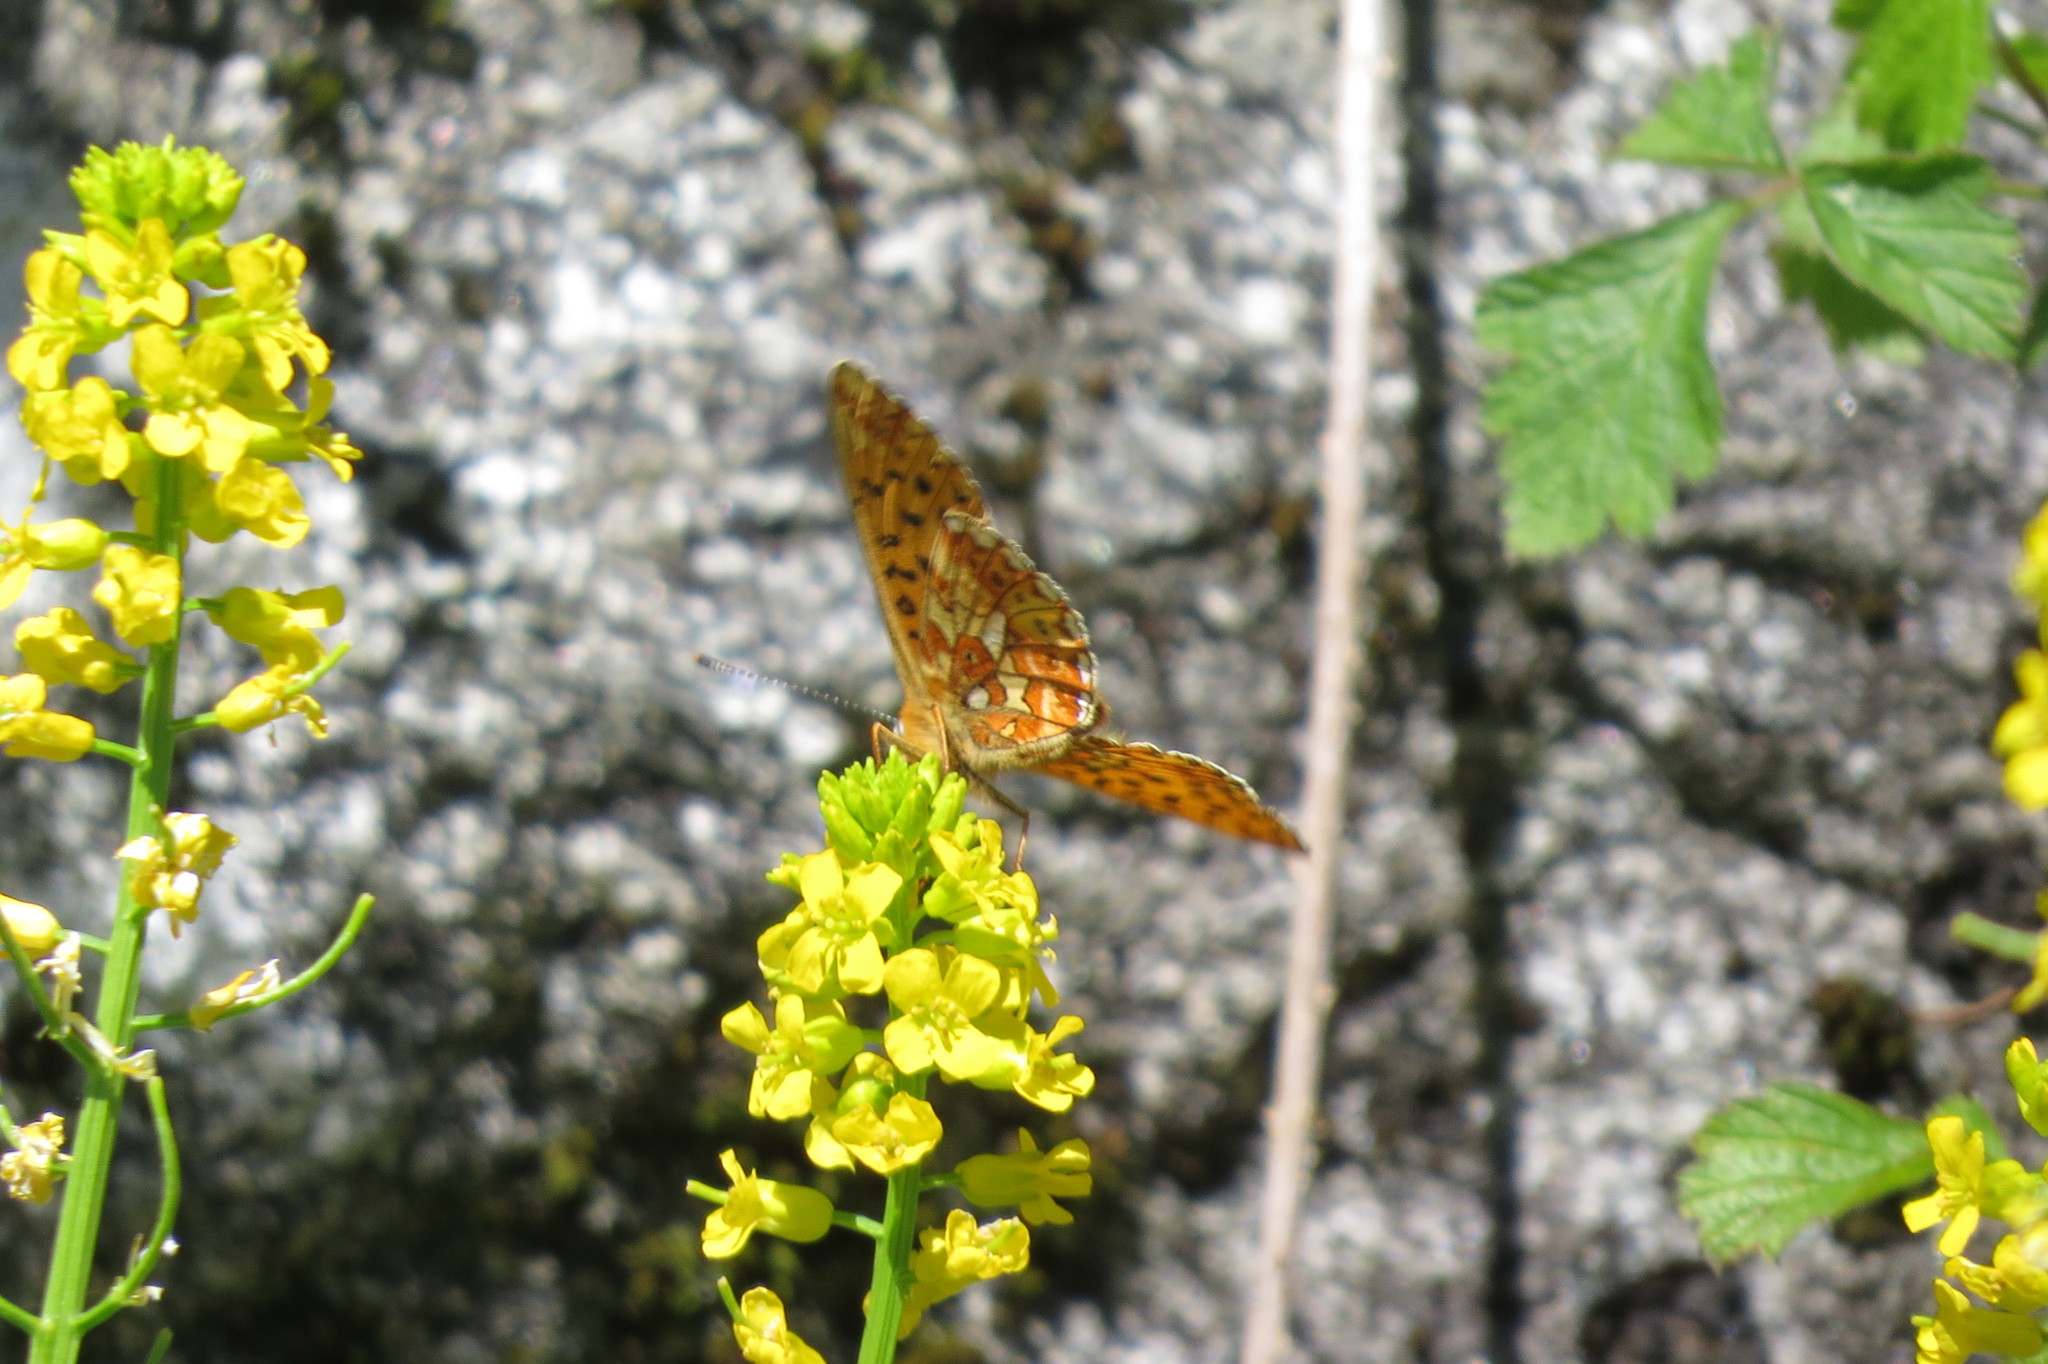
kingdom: Animalia
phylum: Arthropoda
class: Insecta
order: Lepidoptera
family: Nymphalidae
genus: Clossiana
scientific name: Clossiana euphrosyne
